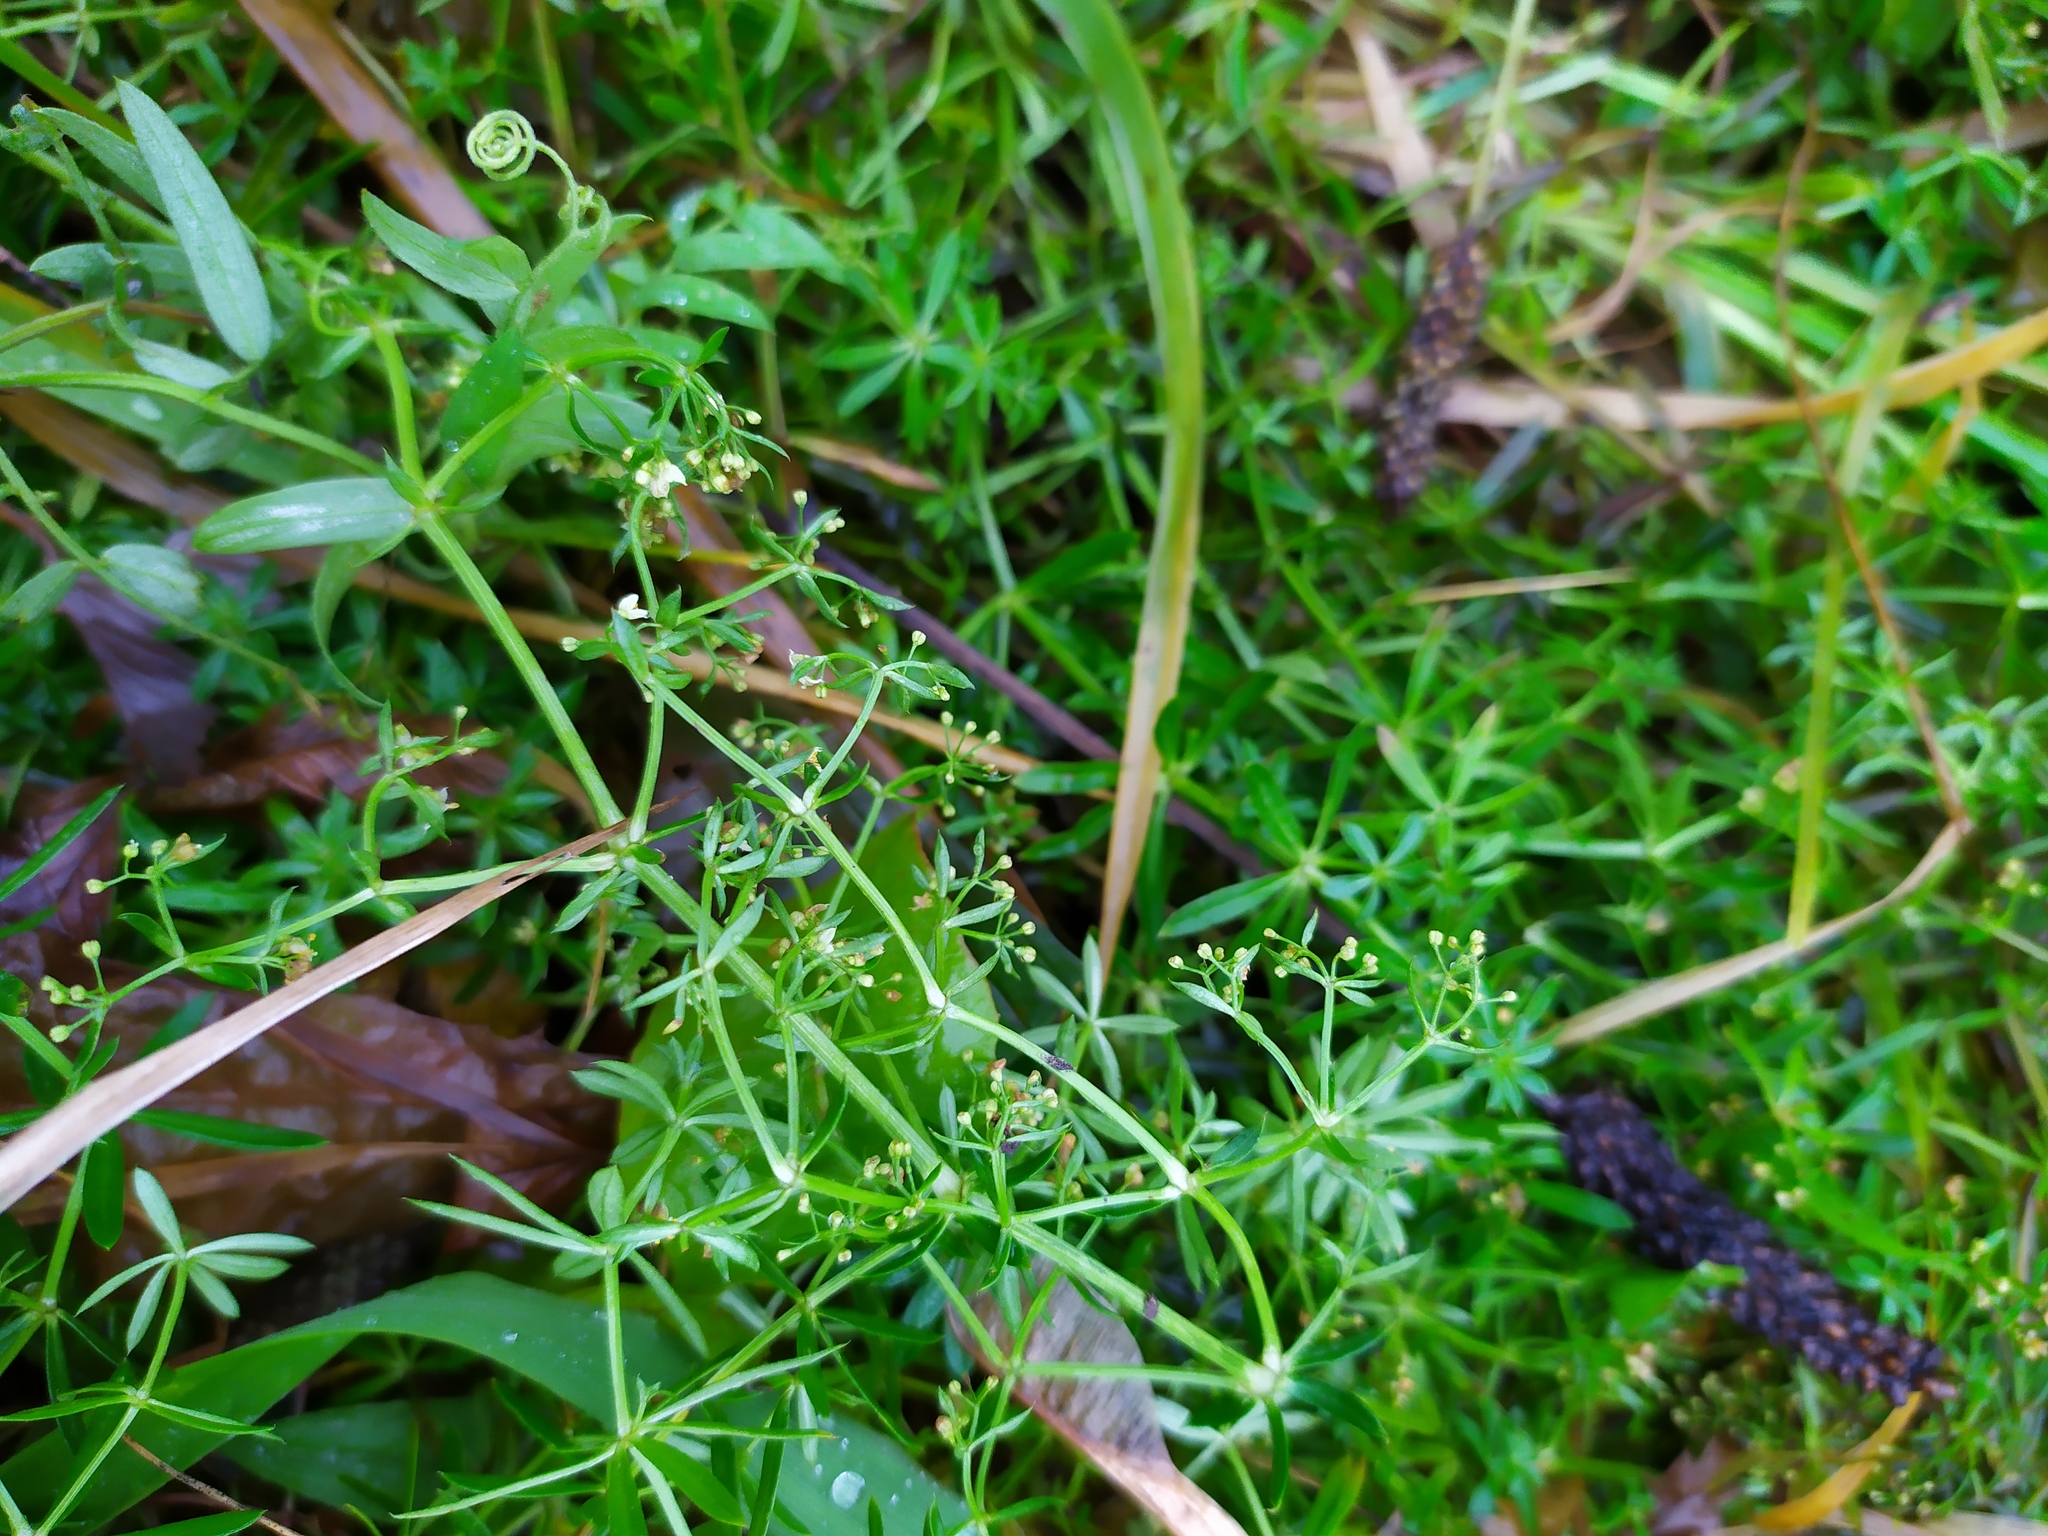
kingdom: Plantae
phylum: Tracheophyta
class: Magnoliopsida
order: Gentianales
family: Rubiaceae
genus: Galium
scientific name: Galium mollugo
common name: Hedge bedstraw
